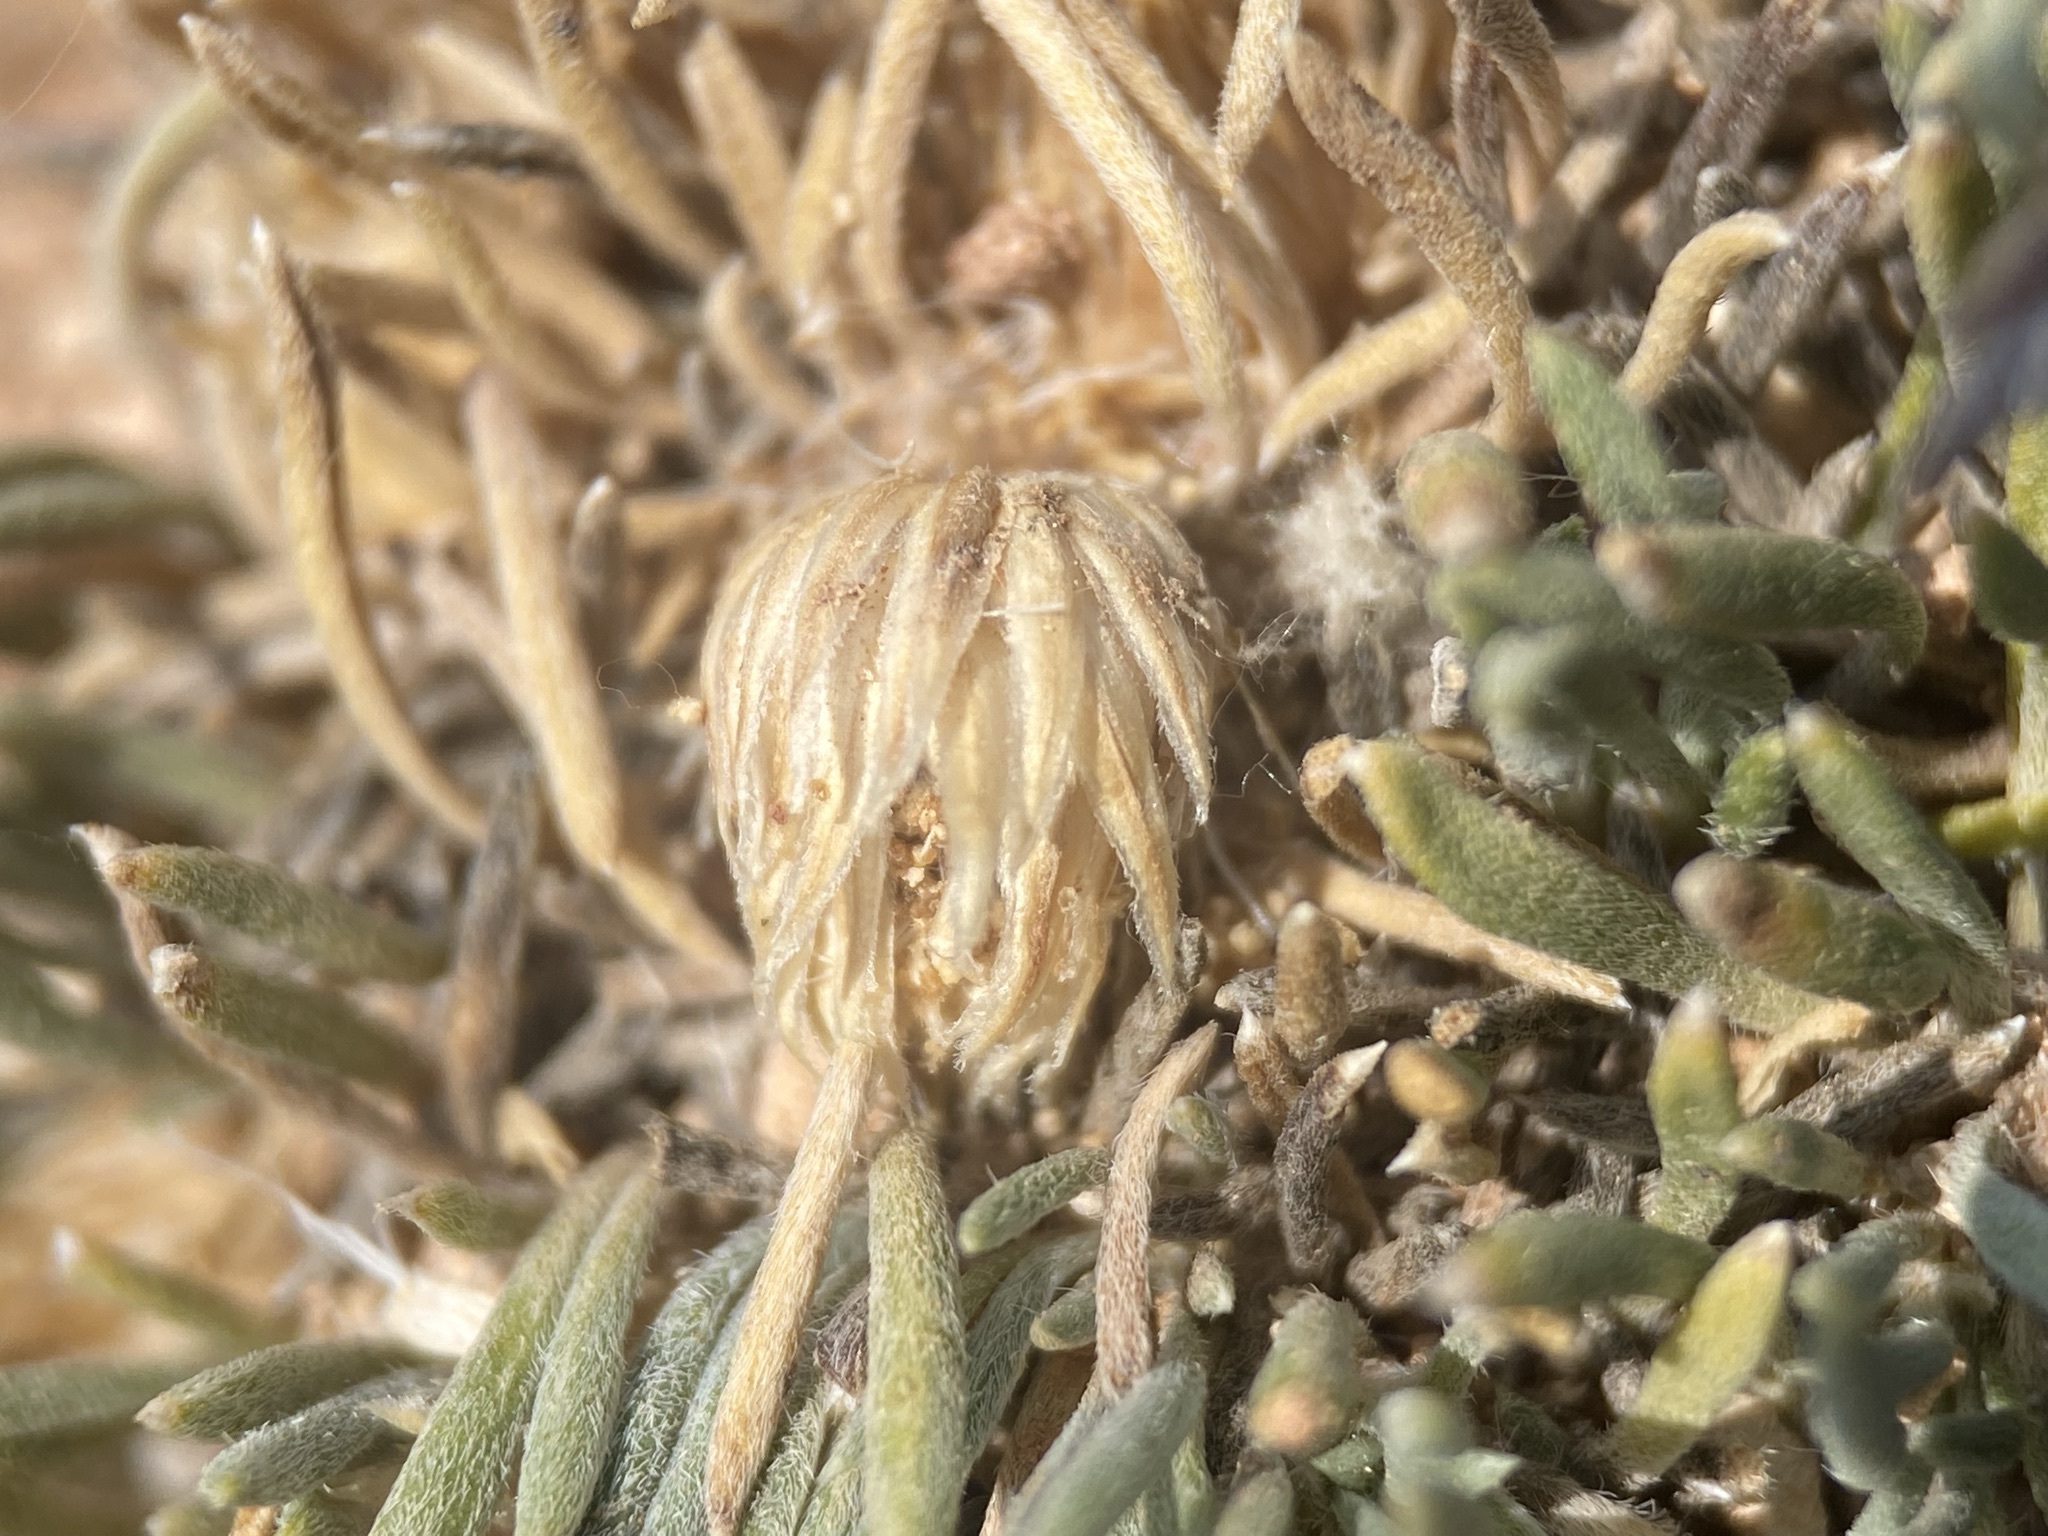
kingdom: Plantae
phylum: Tracheophyta
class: Magnoliopsida
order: Asterales
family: Asteraceae
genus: Townsendia
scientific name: Townsendia hookeri
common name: Hooker's townsend daisy
